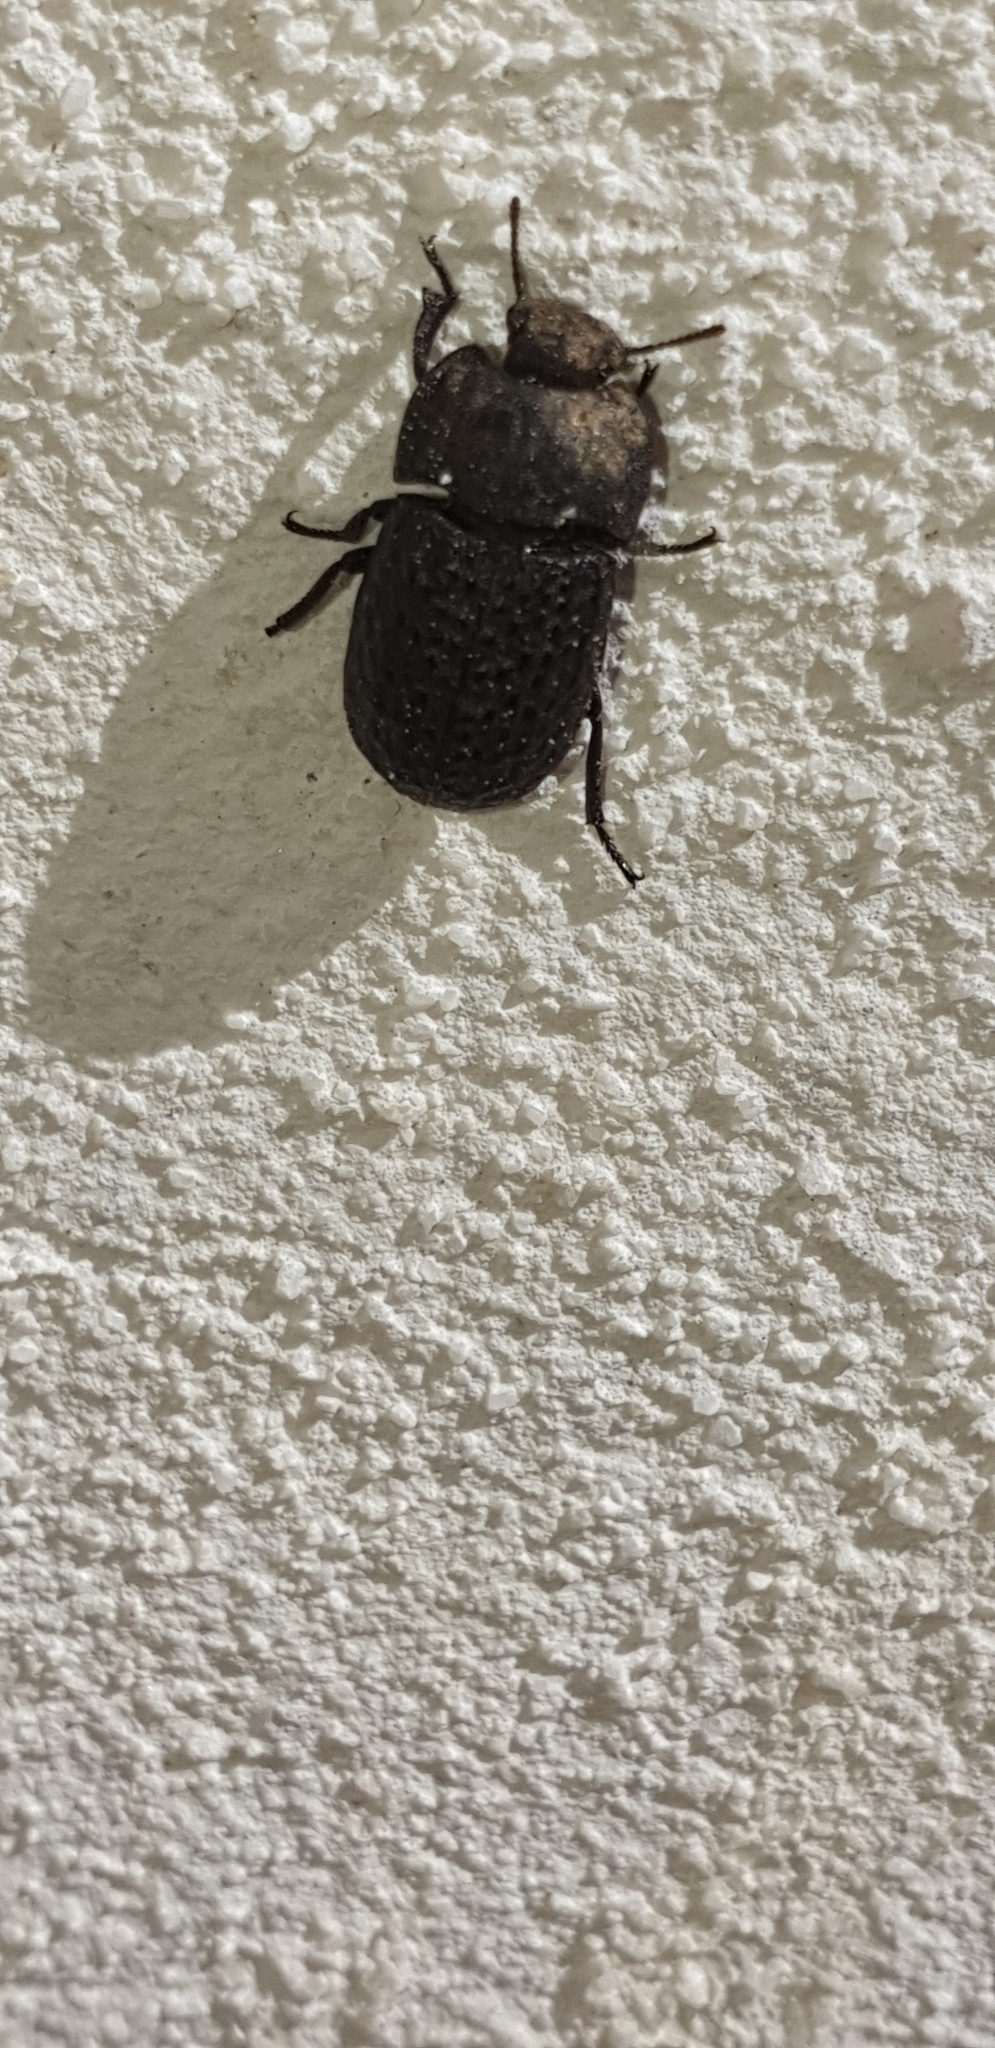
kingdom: Animalia
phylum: Arthropoda
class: Insecta
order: Coleoptera
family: Tenebrionidae
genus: Opatrum
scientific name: Opatrum sabulosum
